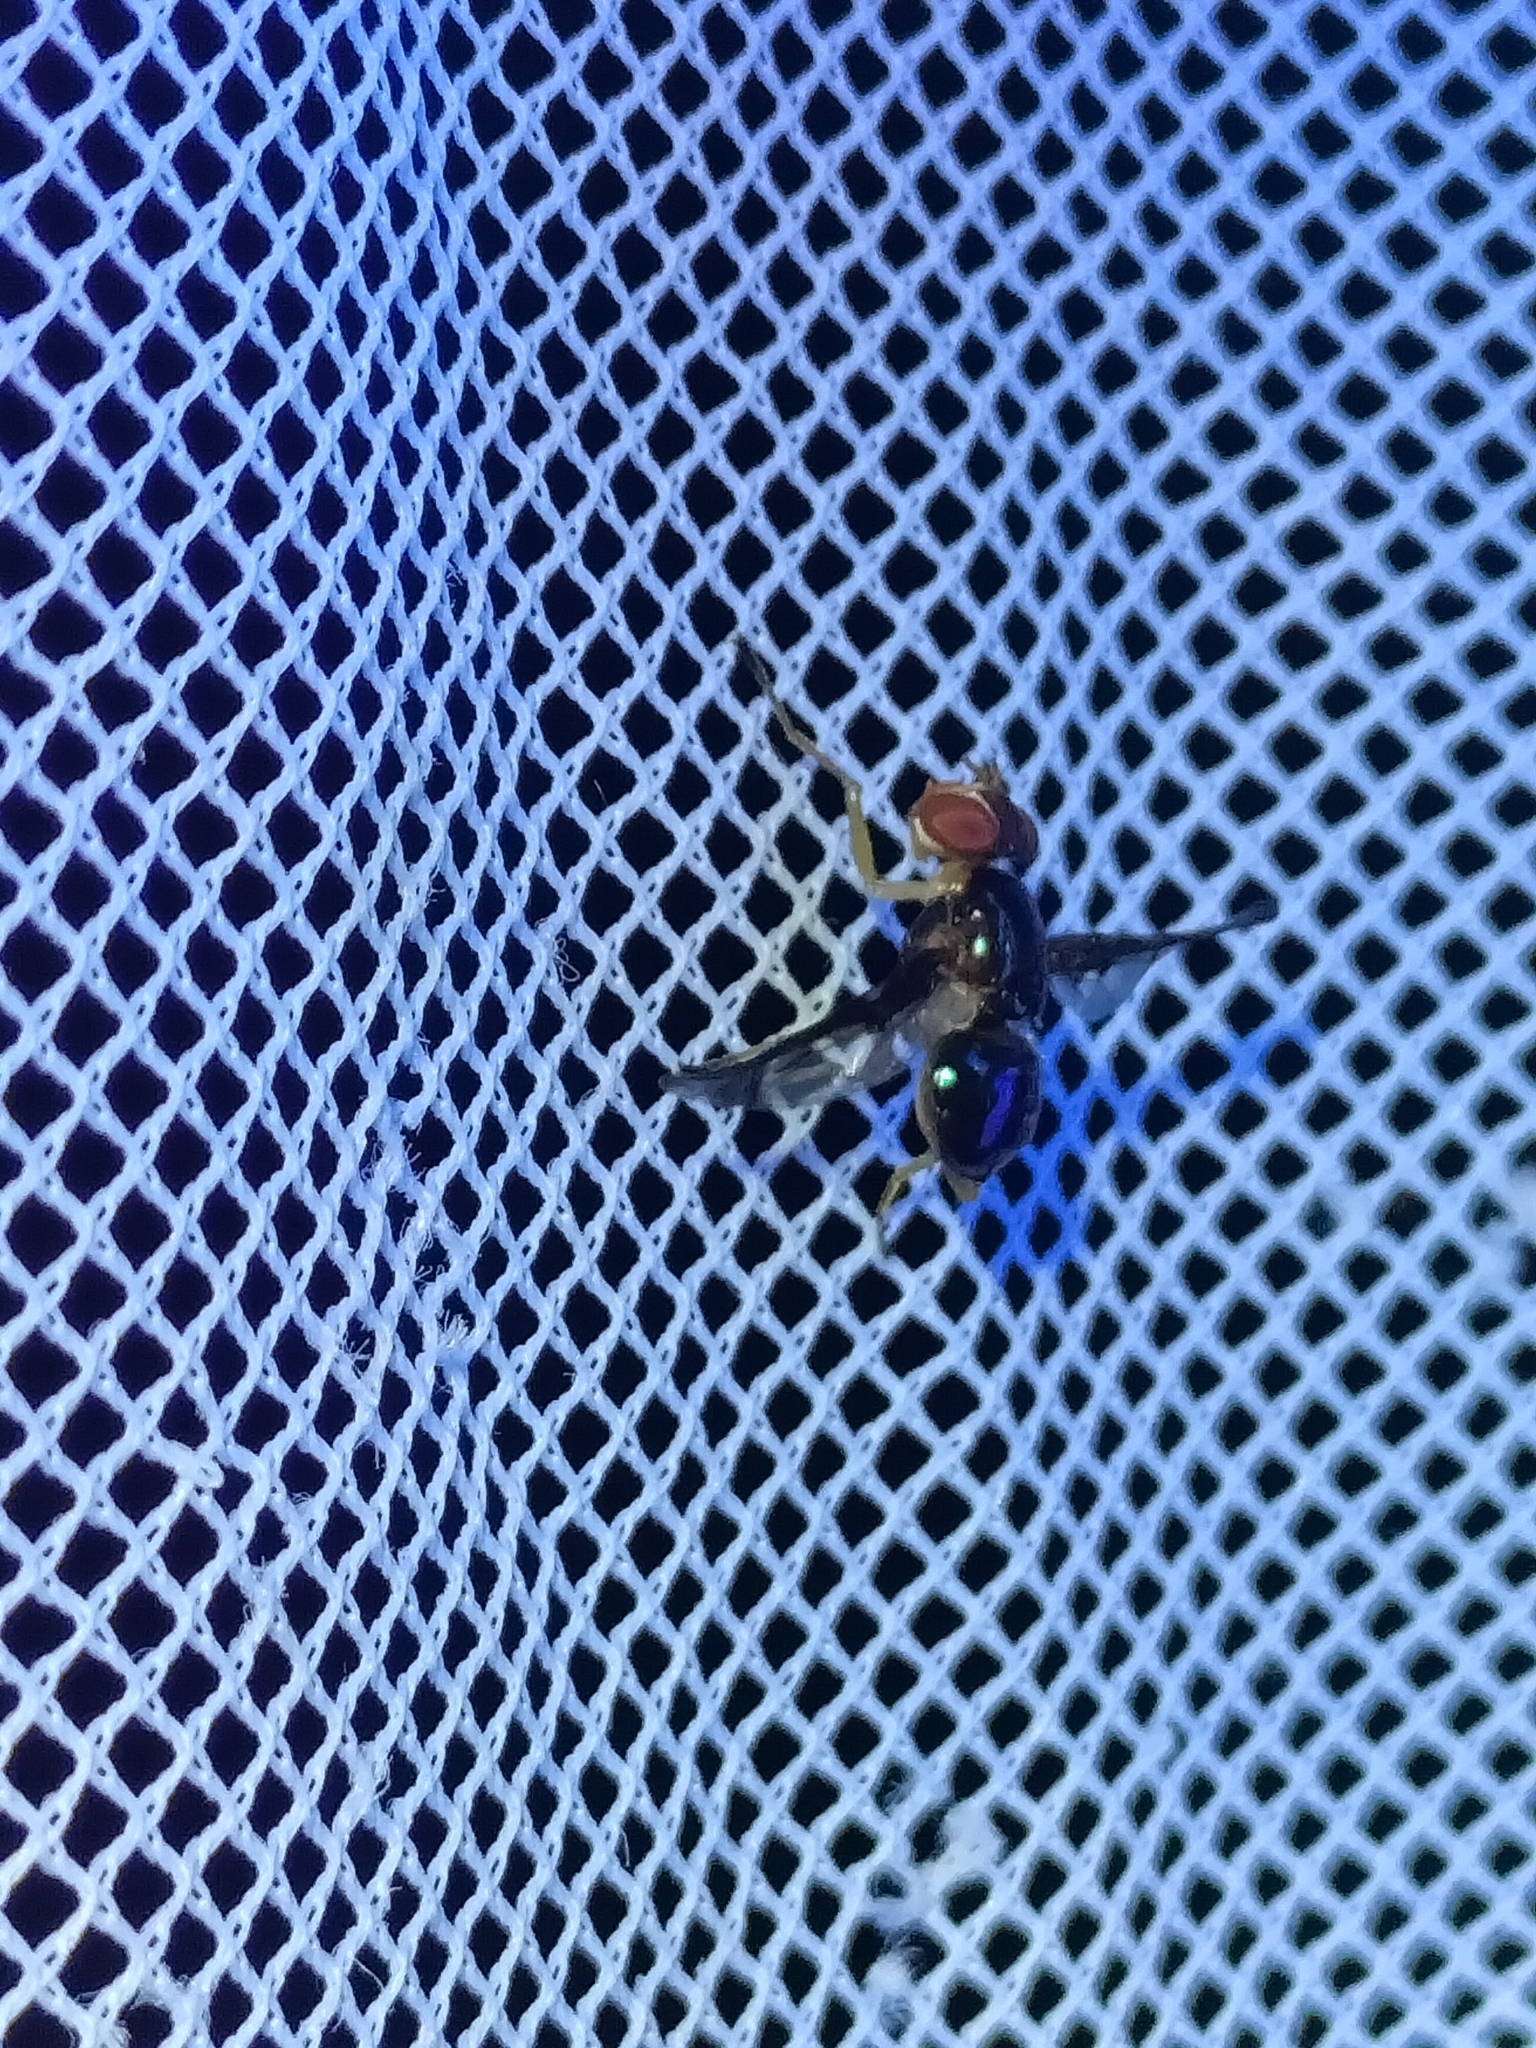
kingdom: Animalia
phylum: Arthropoda
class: Insecta
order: Diptera
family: Platystomatidae
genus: Lamprogaster
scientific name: Lamprogaster stenoparia
